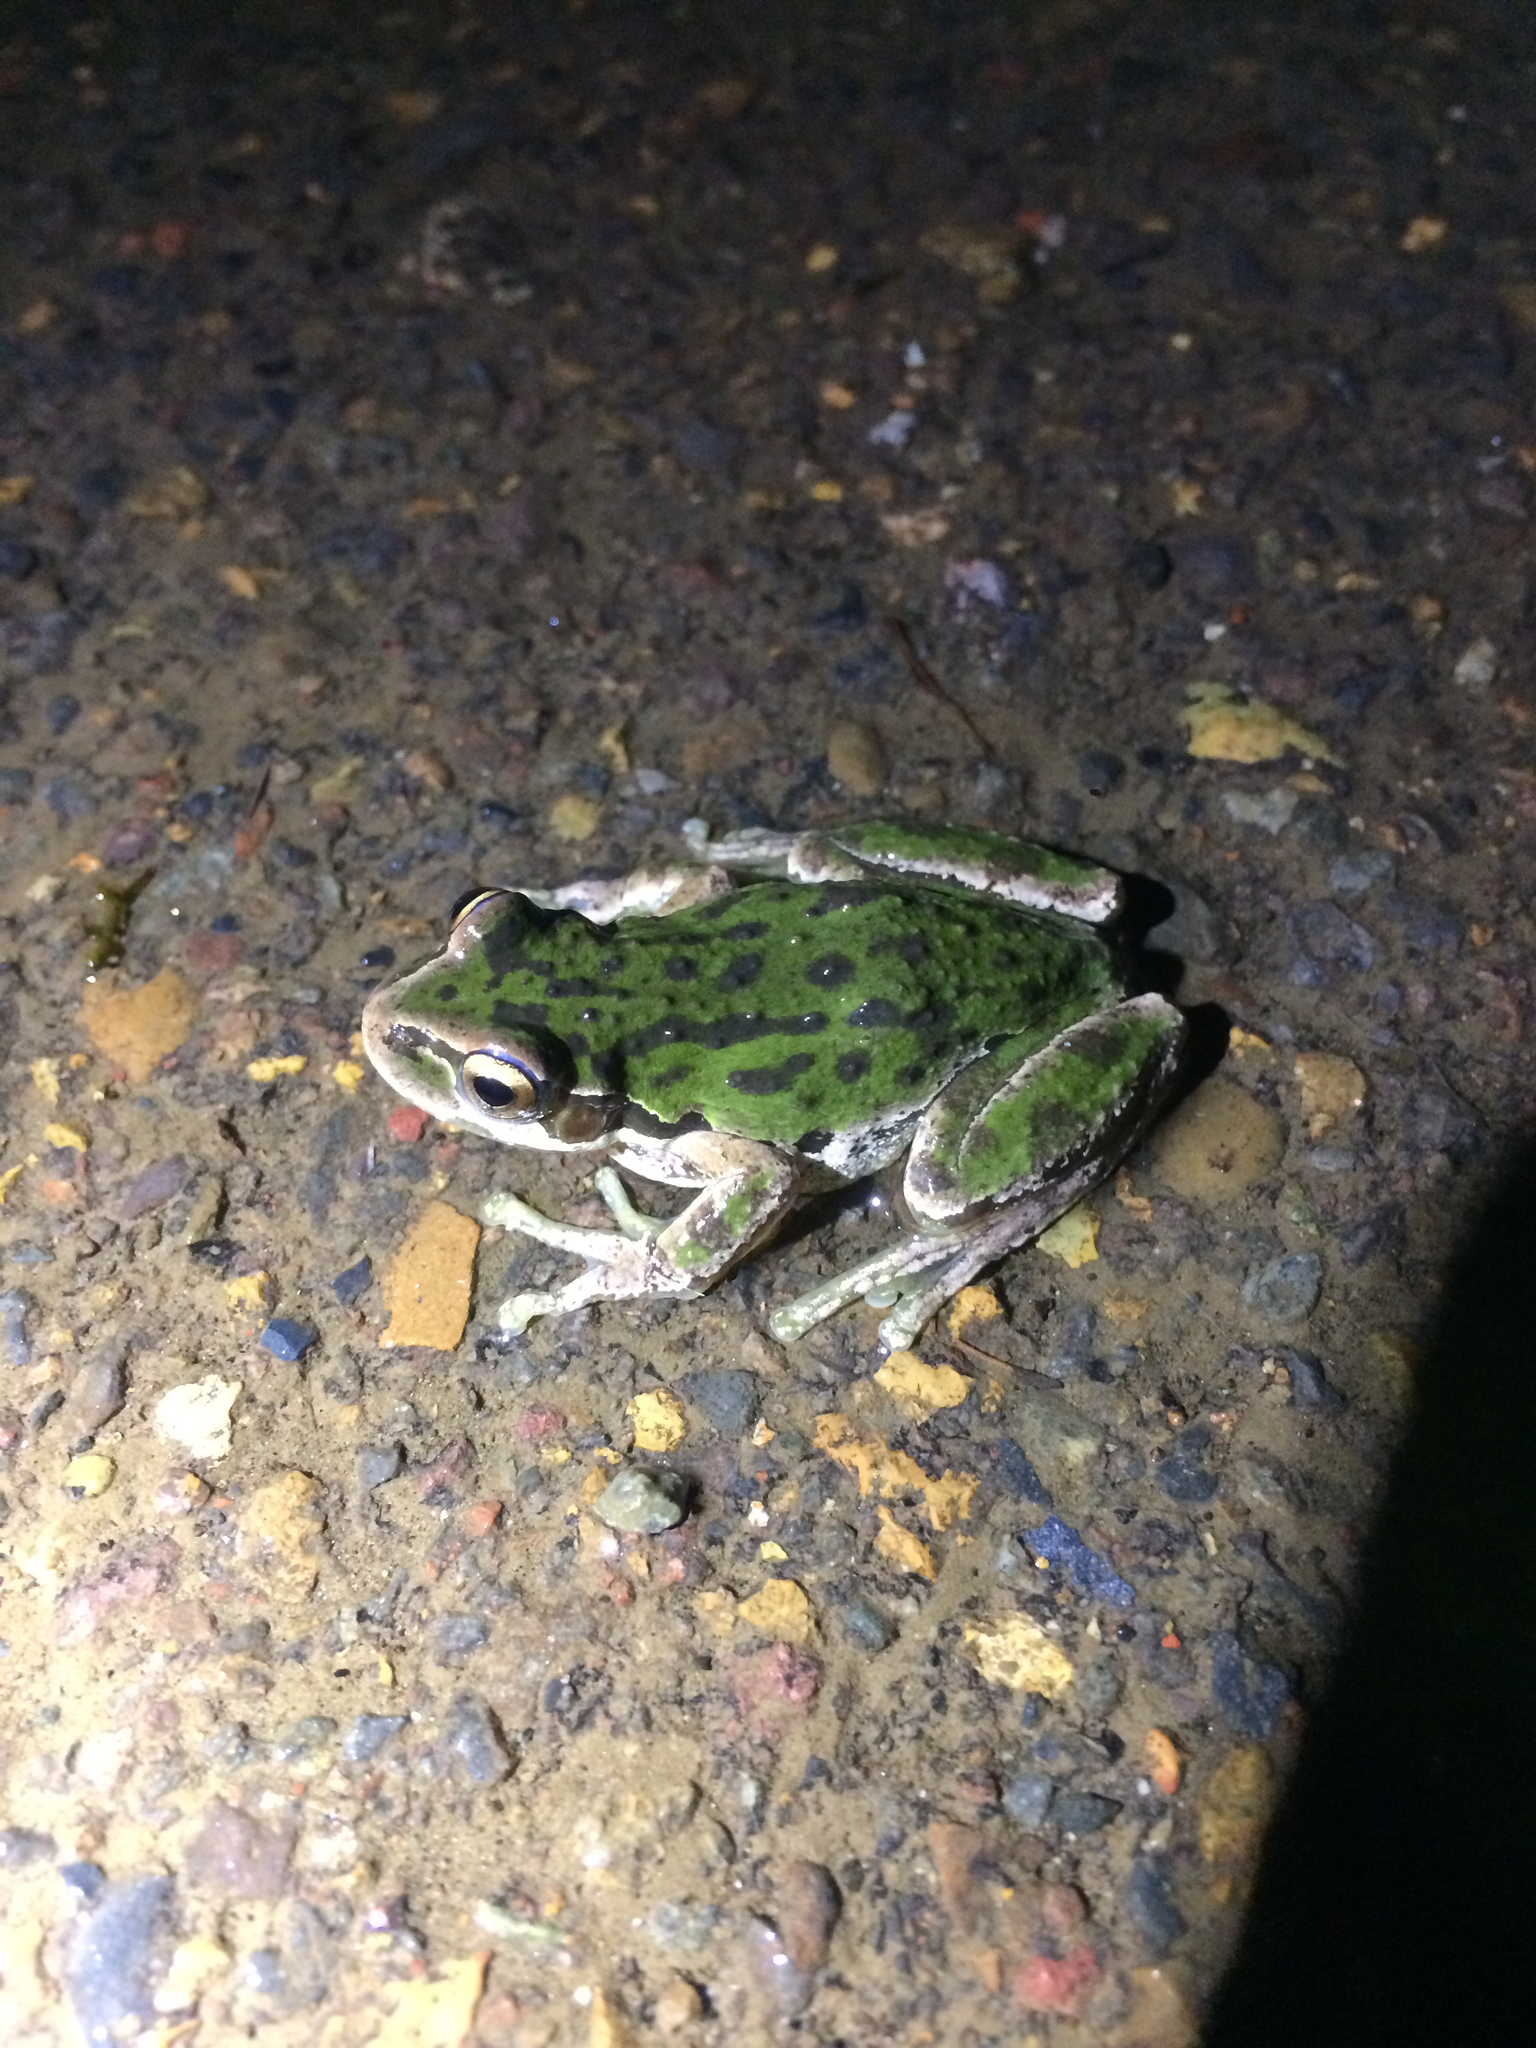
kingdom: Animalia
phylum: Chordata
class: Amphibia
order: Anura
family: Hylidae
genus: Pseudacris
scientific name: Pseudacris regilla
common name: Pacific chorus frog
